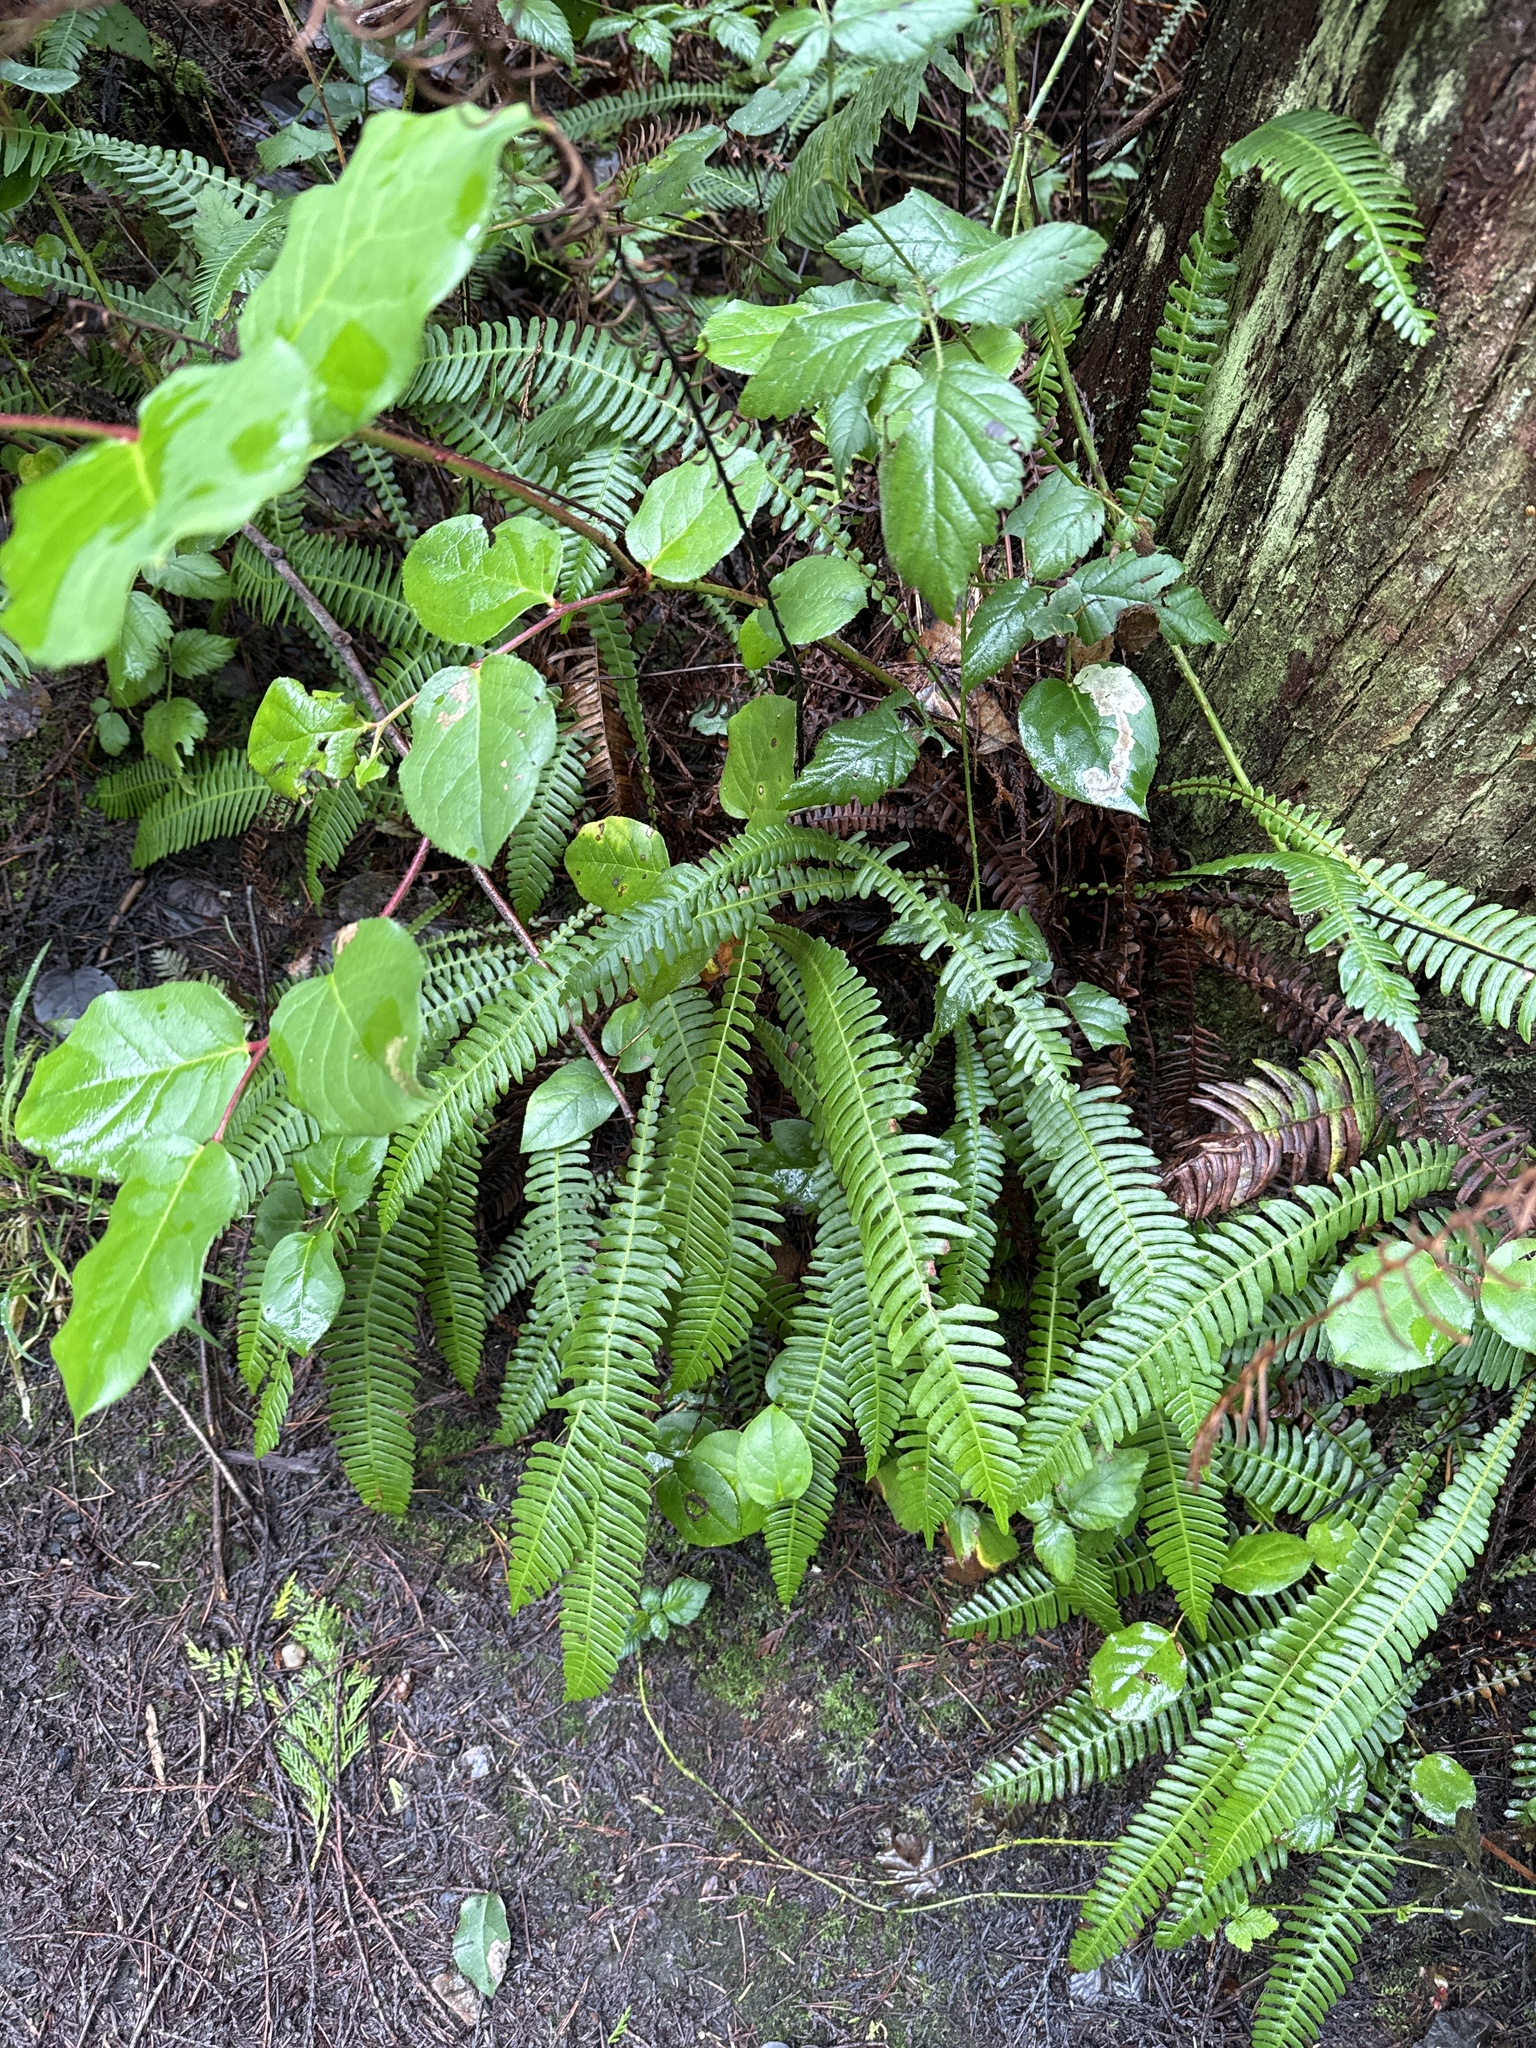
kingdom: Plantae
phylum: Tracheophyta
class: Polypodiopsida
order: Polypodiales
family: Blechnaceae
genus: Struthiopteris
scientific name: Struthiopteris spicant
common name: Deer fern
